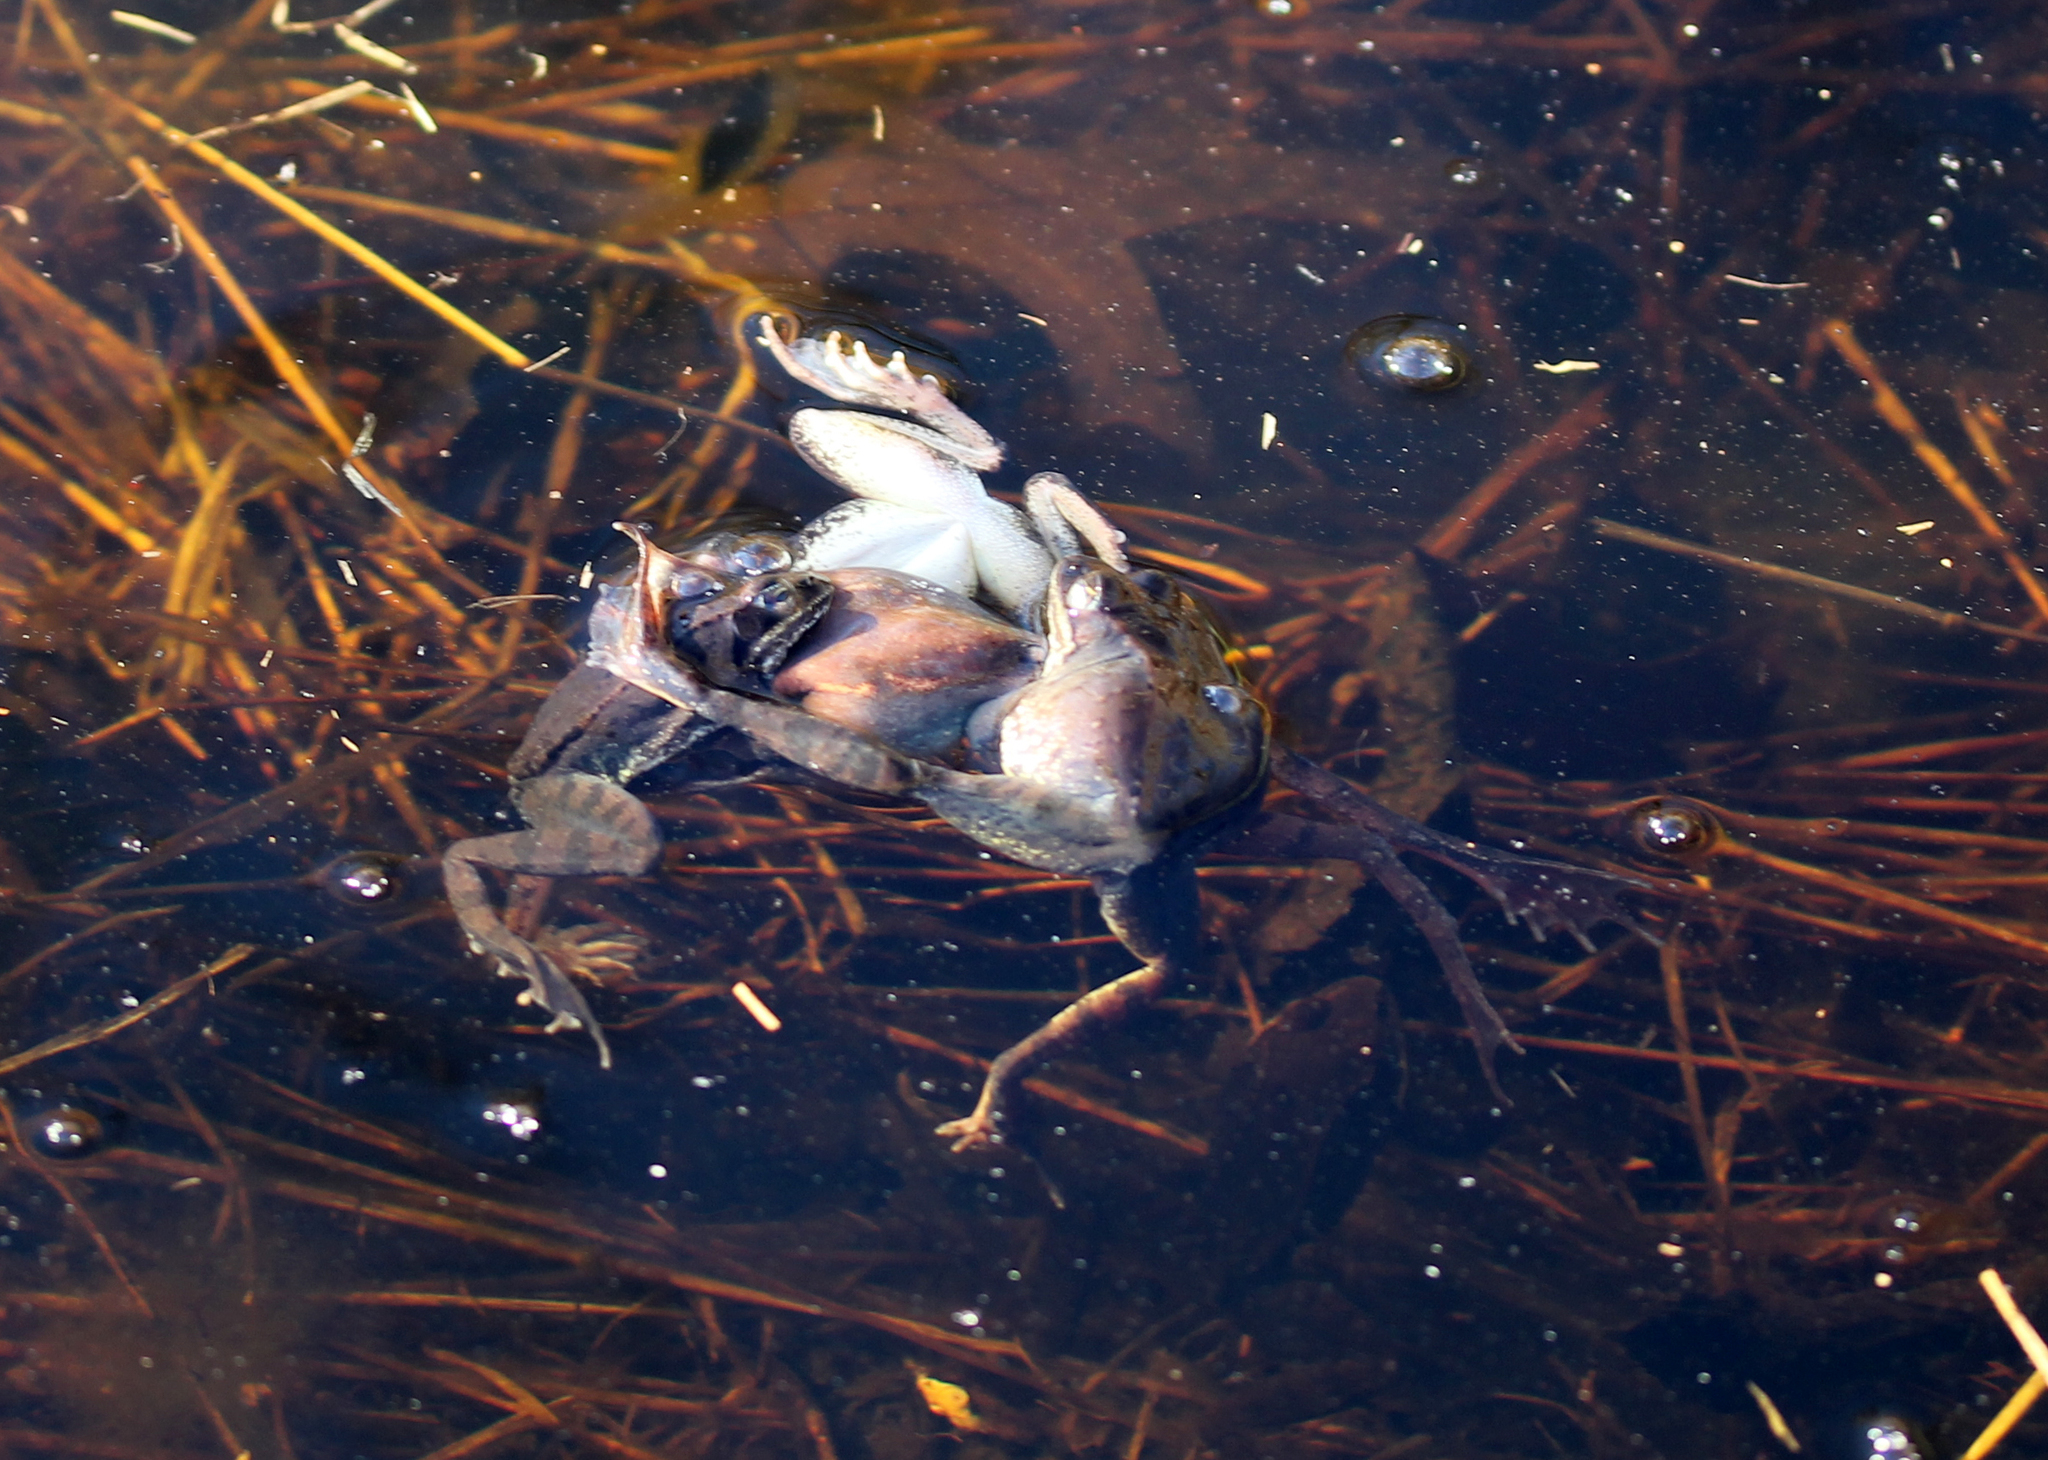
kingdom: Animalia
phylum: Chordata
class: Amphibia
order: Anura
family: Ranidae
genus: Lithobates
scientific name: Lithobates sylvaticus
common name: Wood frog
